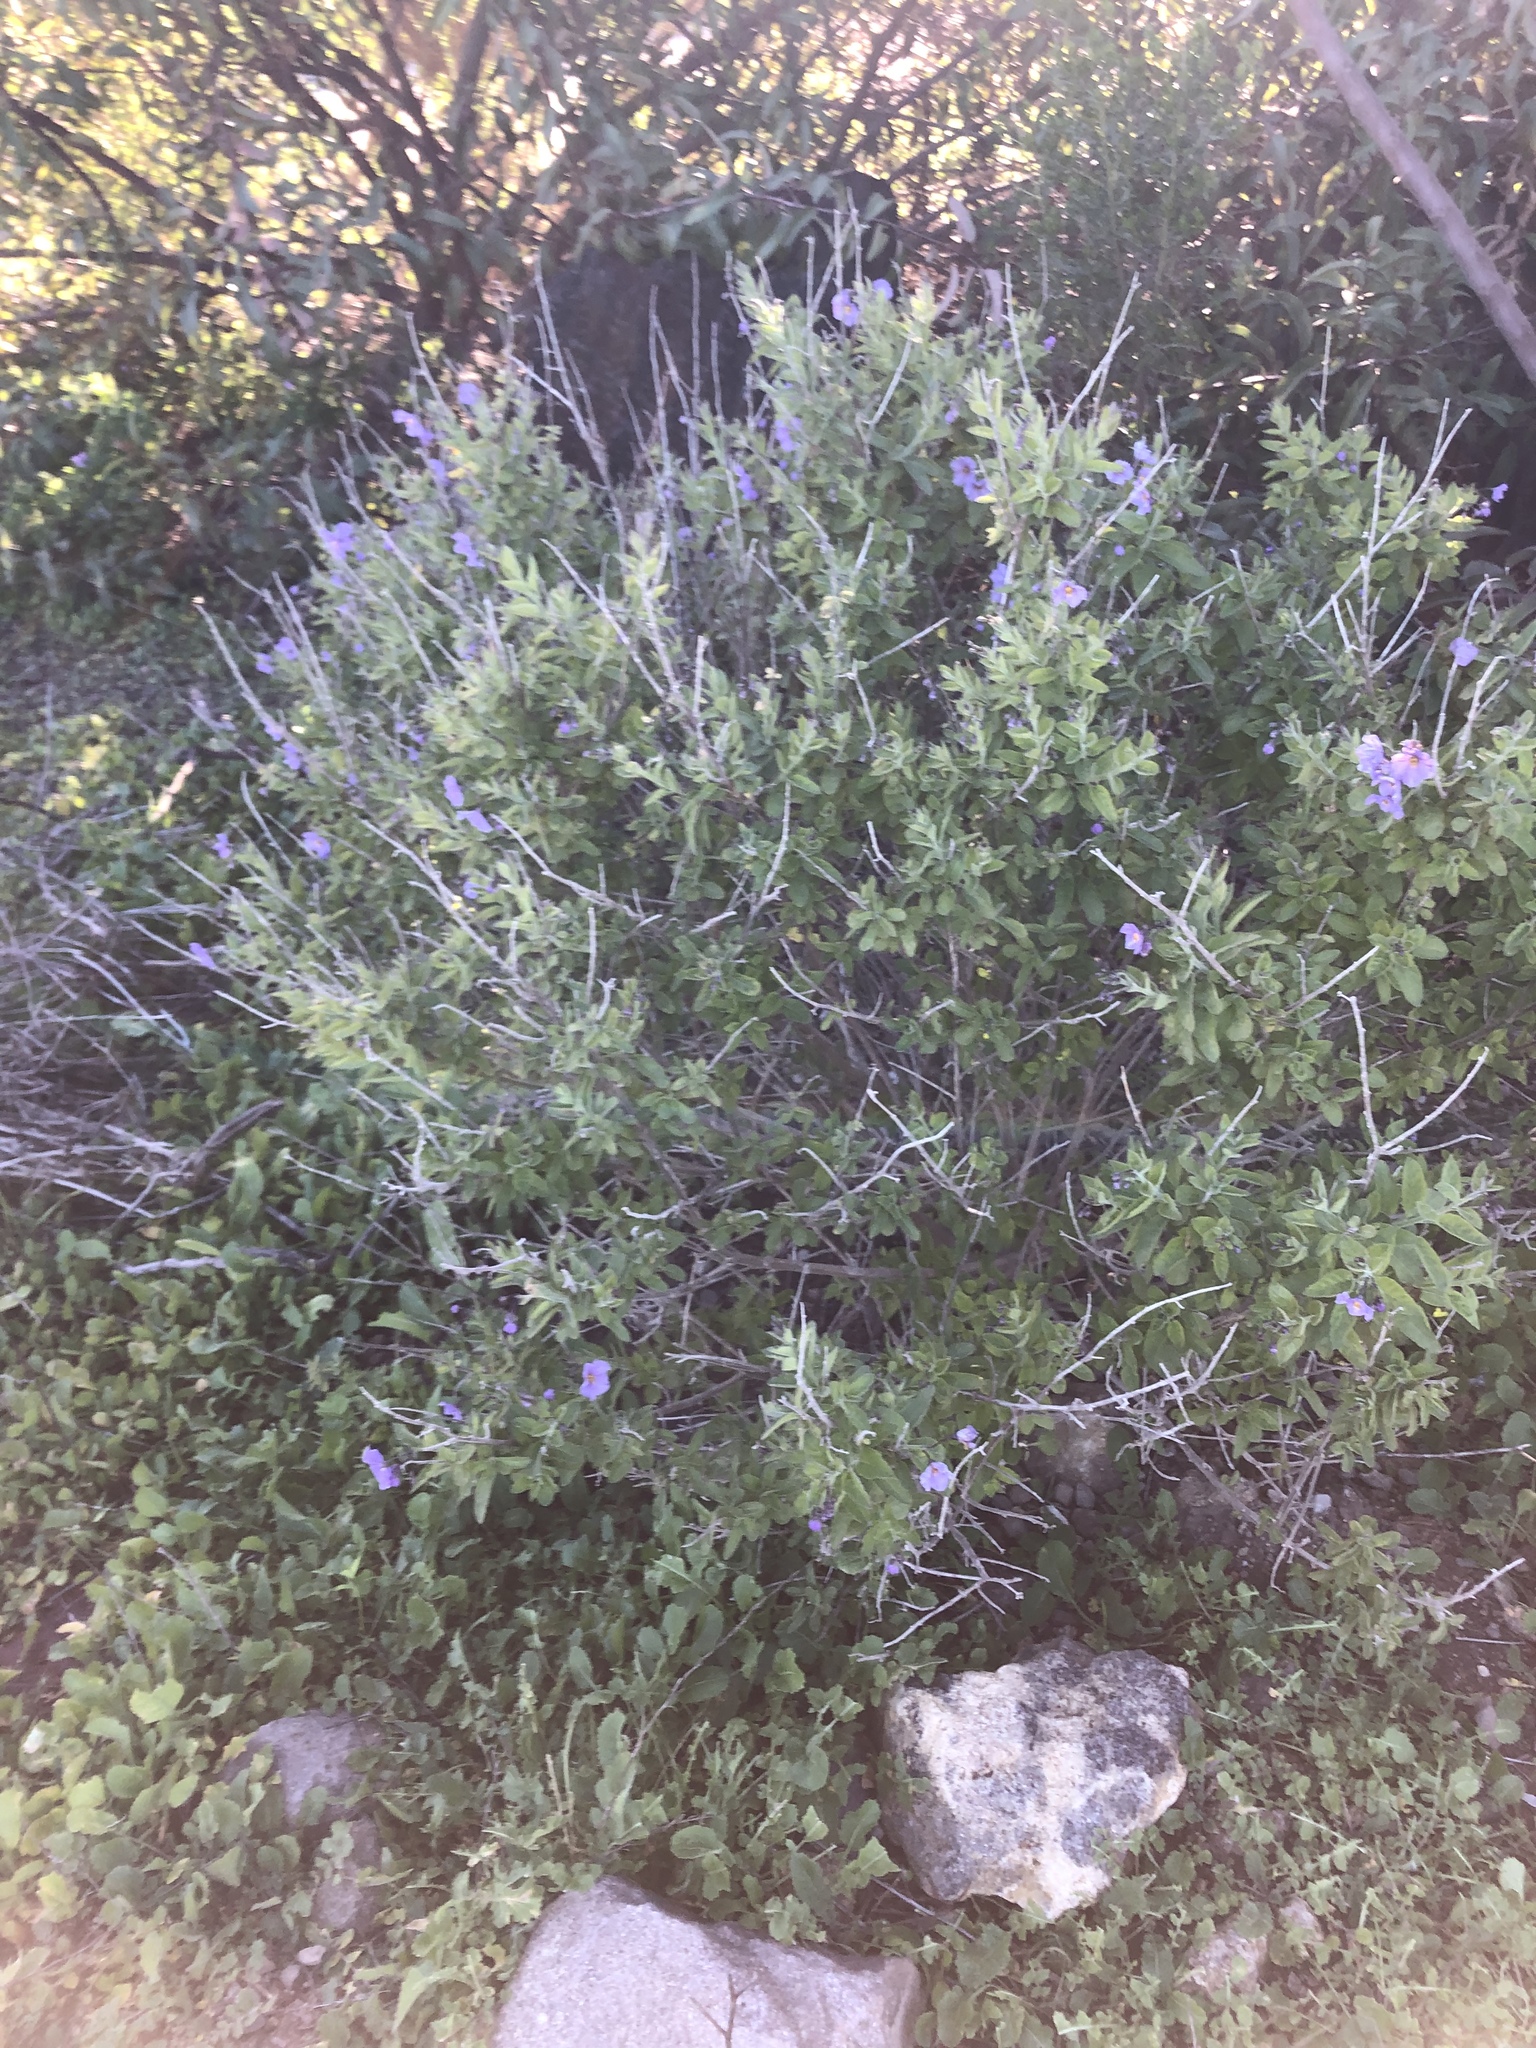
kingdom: Plantae
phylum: Tracheophyta
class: Magnoliopsida
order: Solanales
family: Solanaceae
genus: Solanum
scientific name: Solanum umbelliferum
